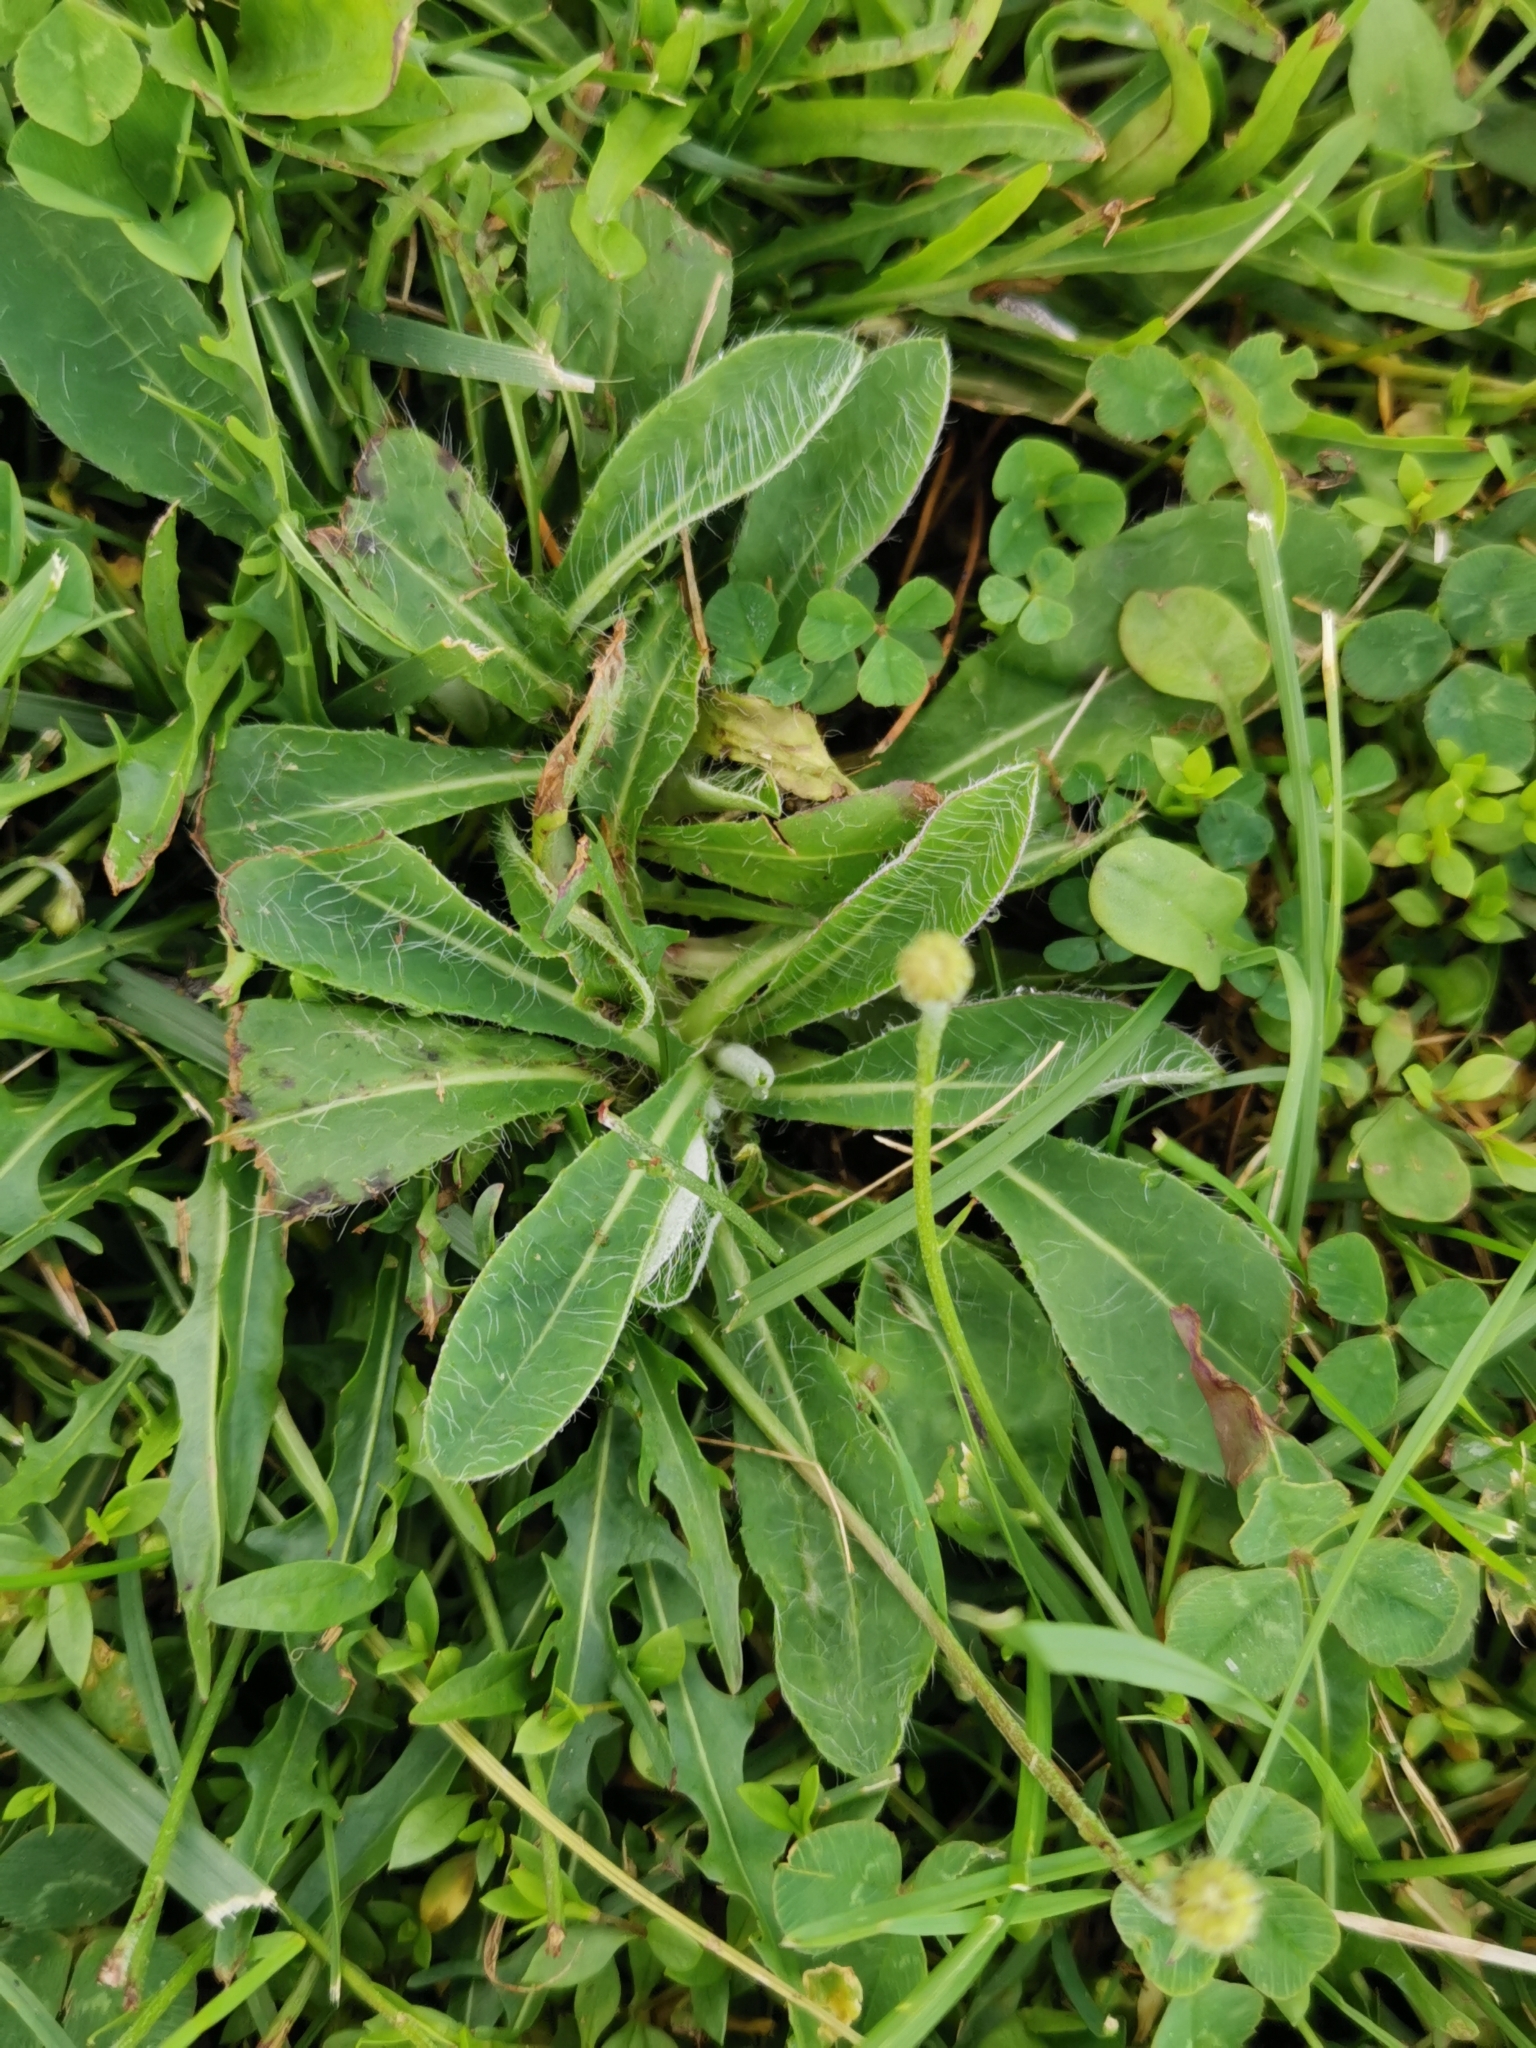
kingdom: Plantae
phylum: Tracheophyta
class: Magnoliopsida
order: Asterales
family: Asteraceae
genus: Pilosella
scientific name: Pilosella officinarum
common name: Mouse-ear hawkweed
